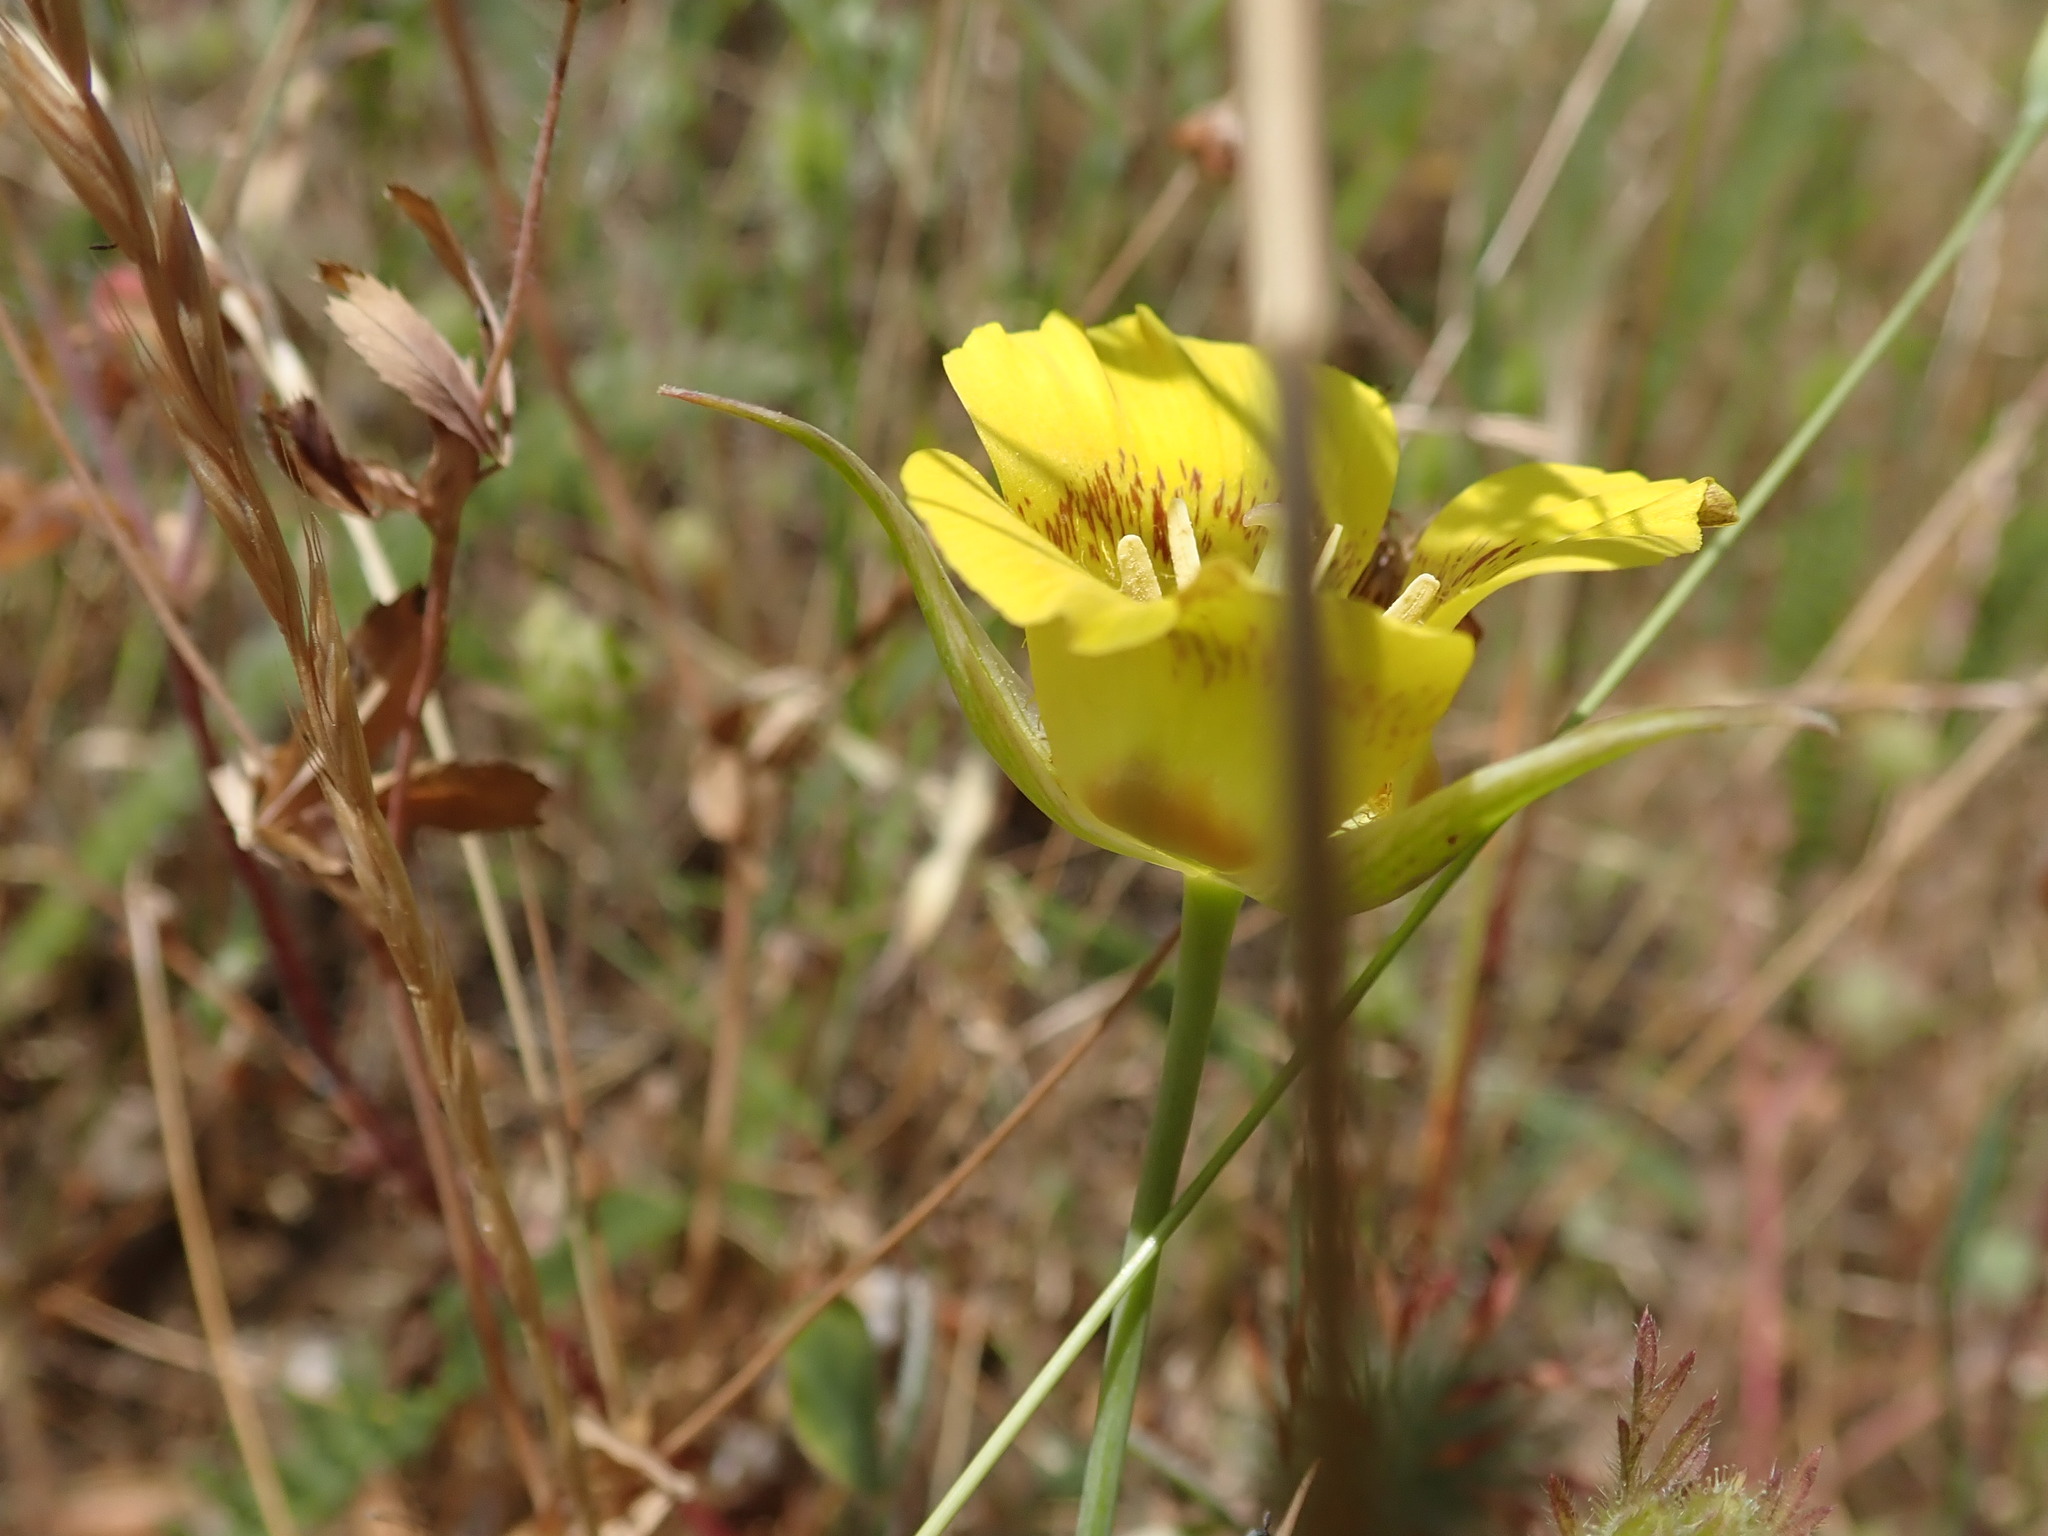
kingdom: Plantae
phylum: Tracheophyta
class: Liliopsida
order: Liliales
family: Liliaceae
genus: Calochortus
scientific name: Calochortus luteus
